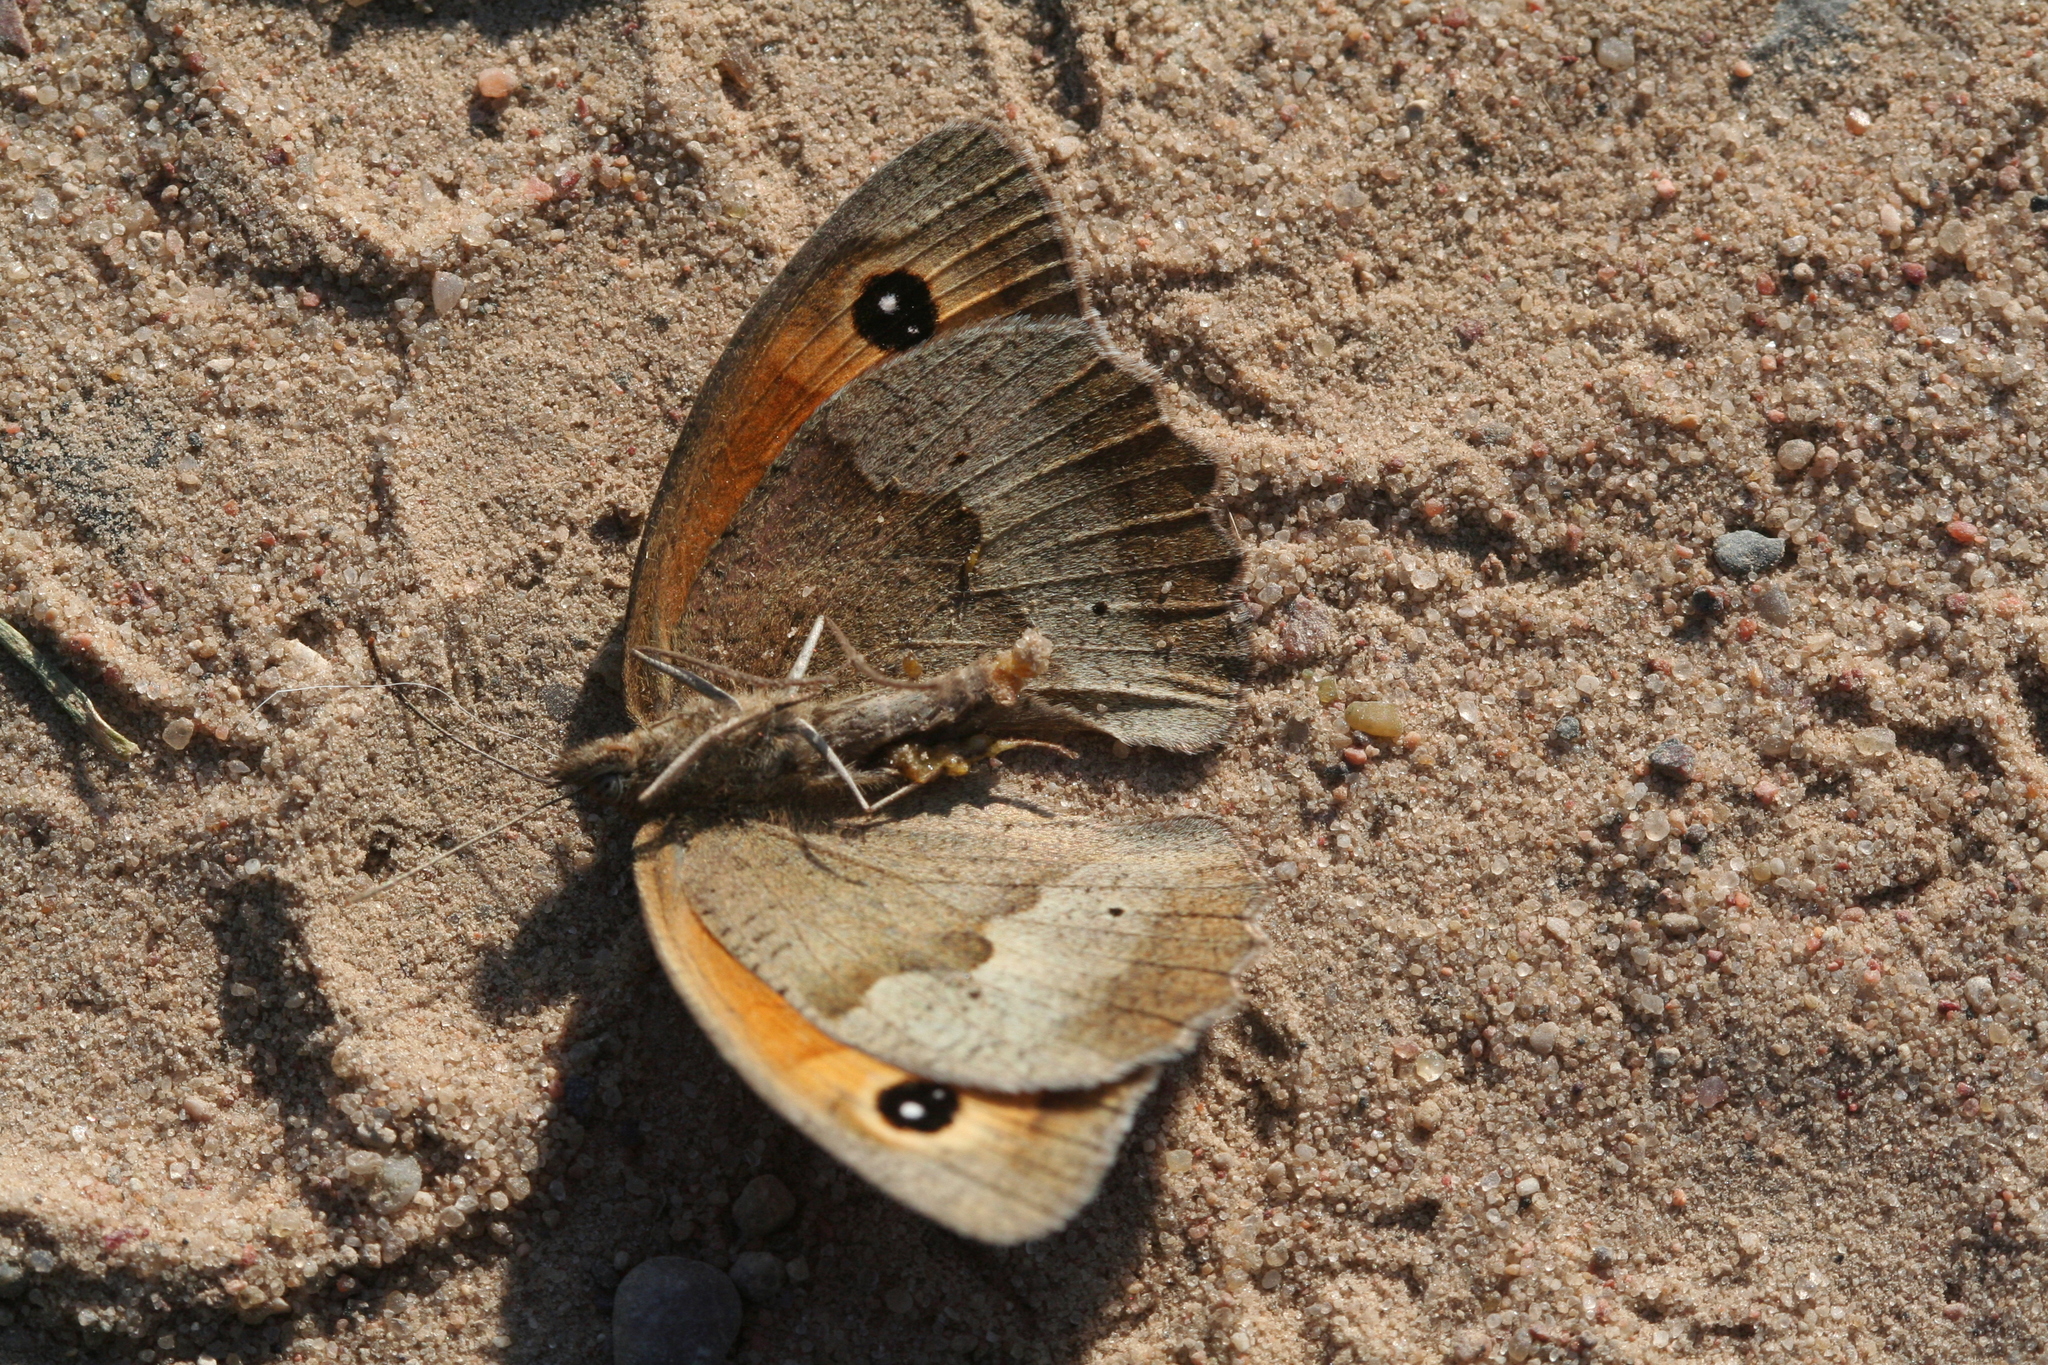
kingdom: Animalia
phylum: Arthropoda
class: Insecta
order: Lepidoptera
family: Nymphalidae
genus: Maniola
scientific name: Maniola jurtina
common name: Meadow brown
